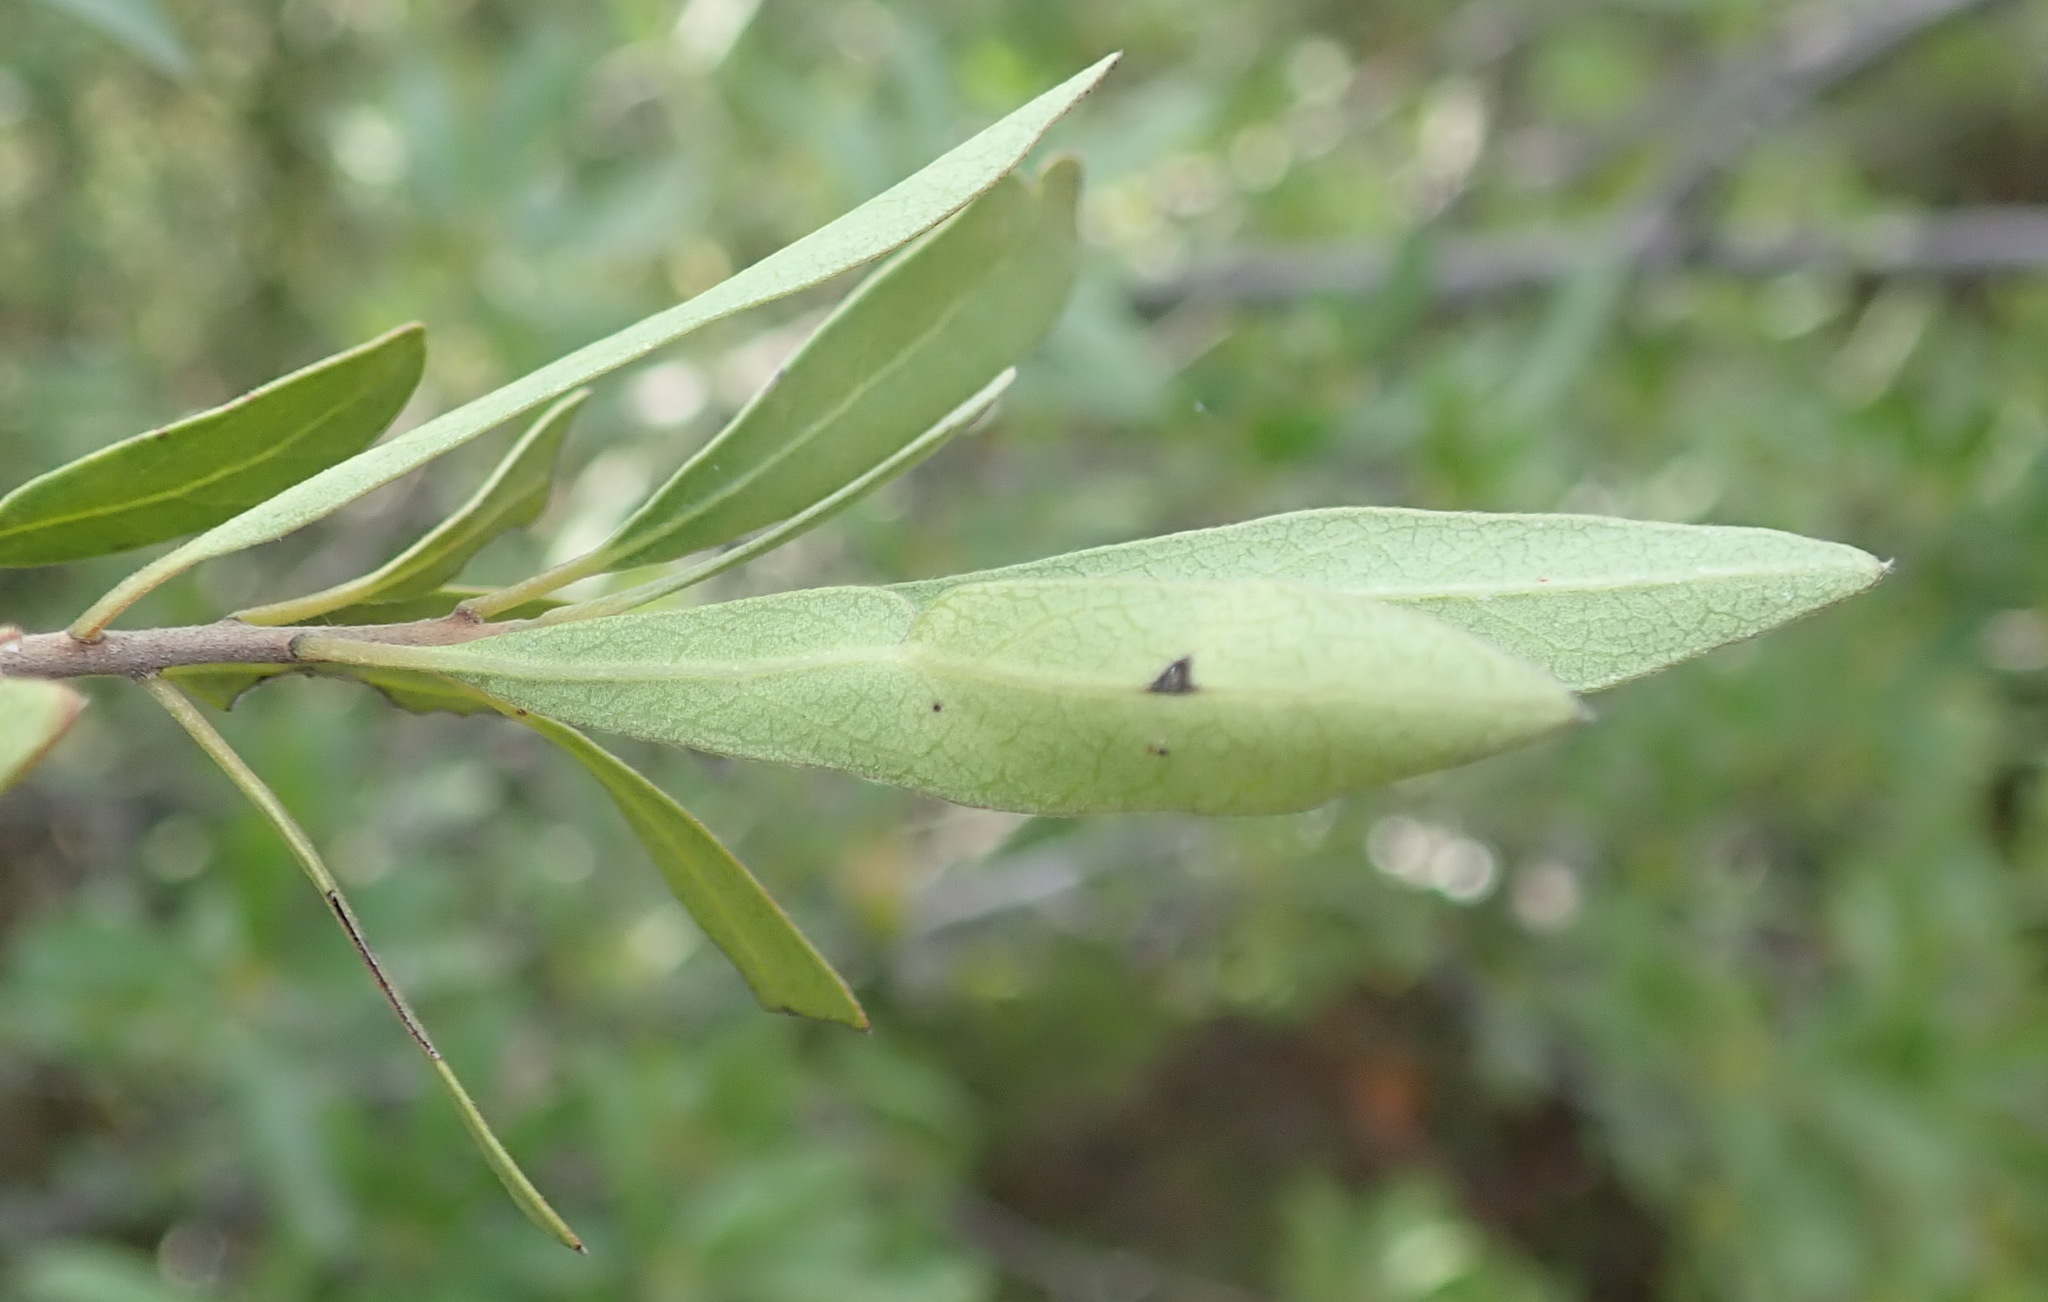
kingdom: Plantae
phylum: Tracheophyta
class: Magnoliopsida
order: Ericales
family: Ebenaceae
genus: Diospyros
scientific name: Diospyros lycioides
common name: Red star apple
